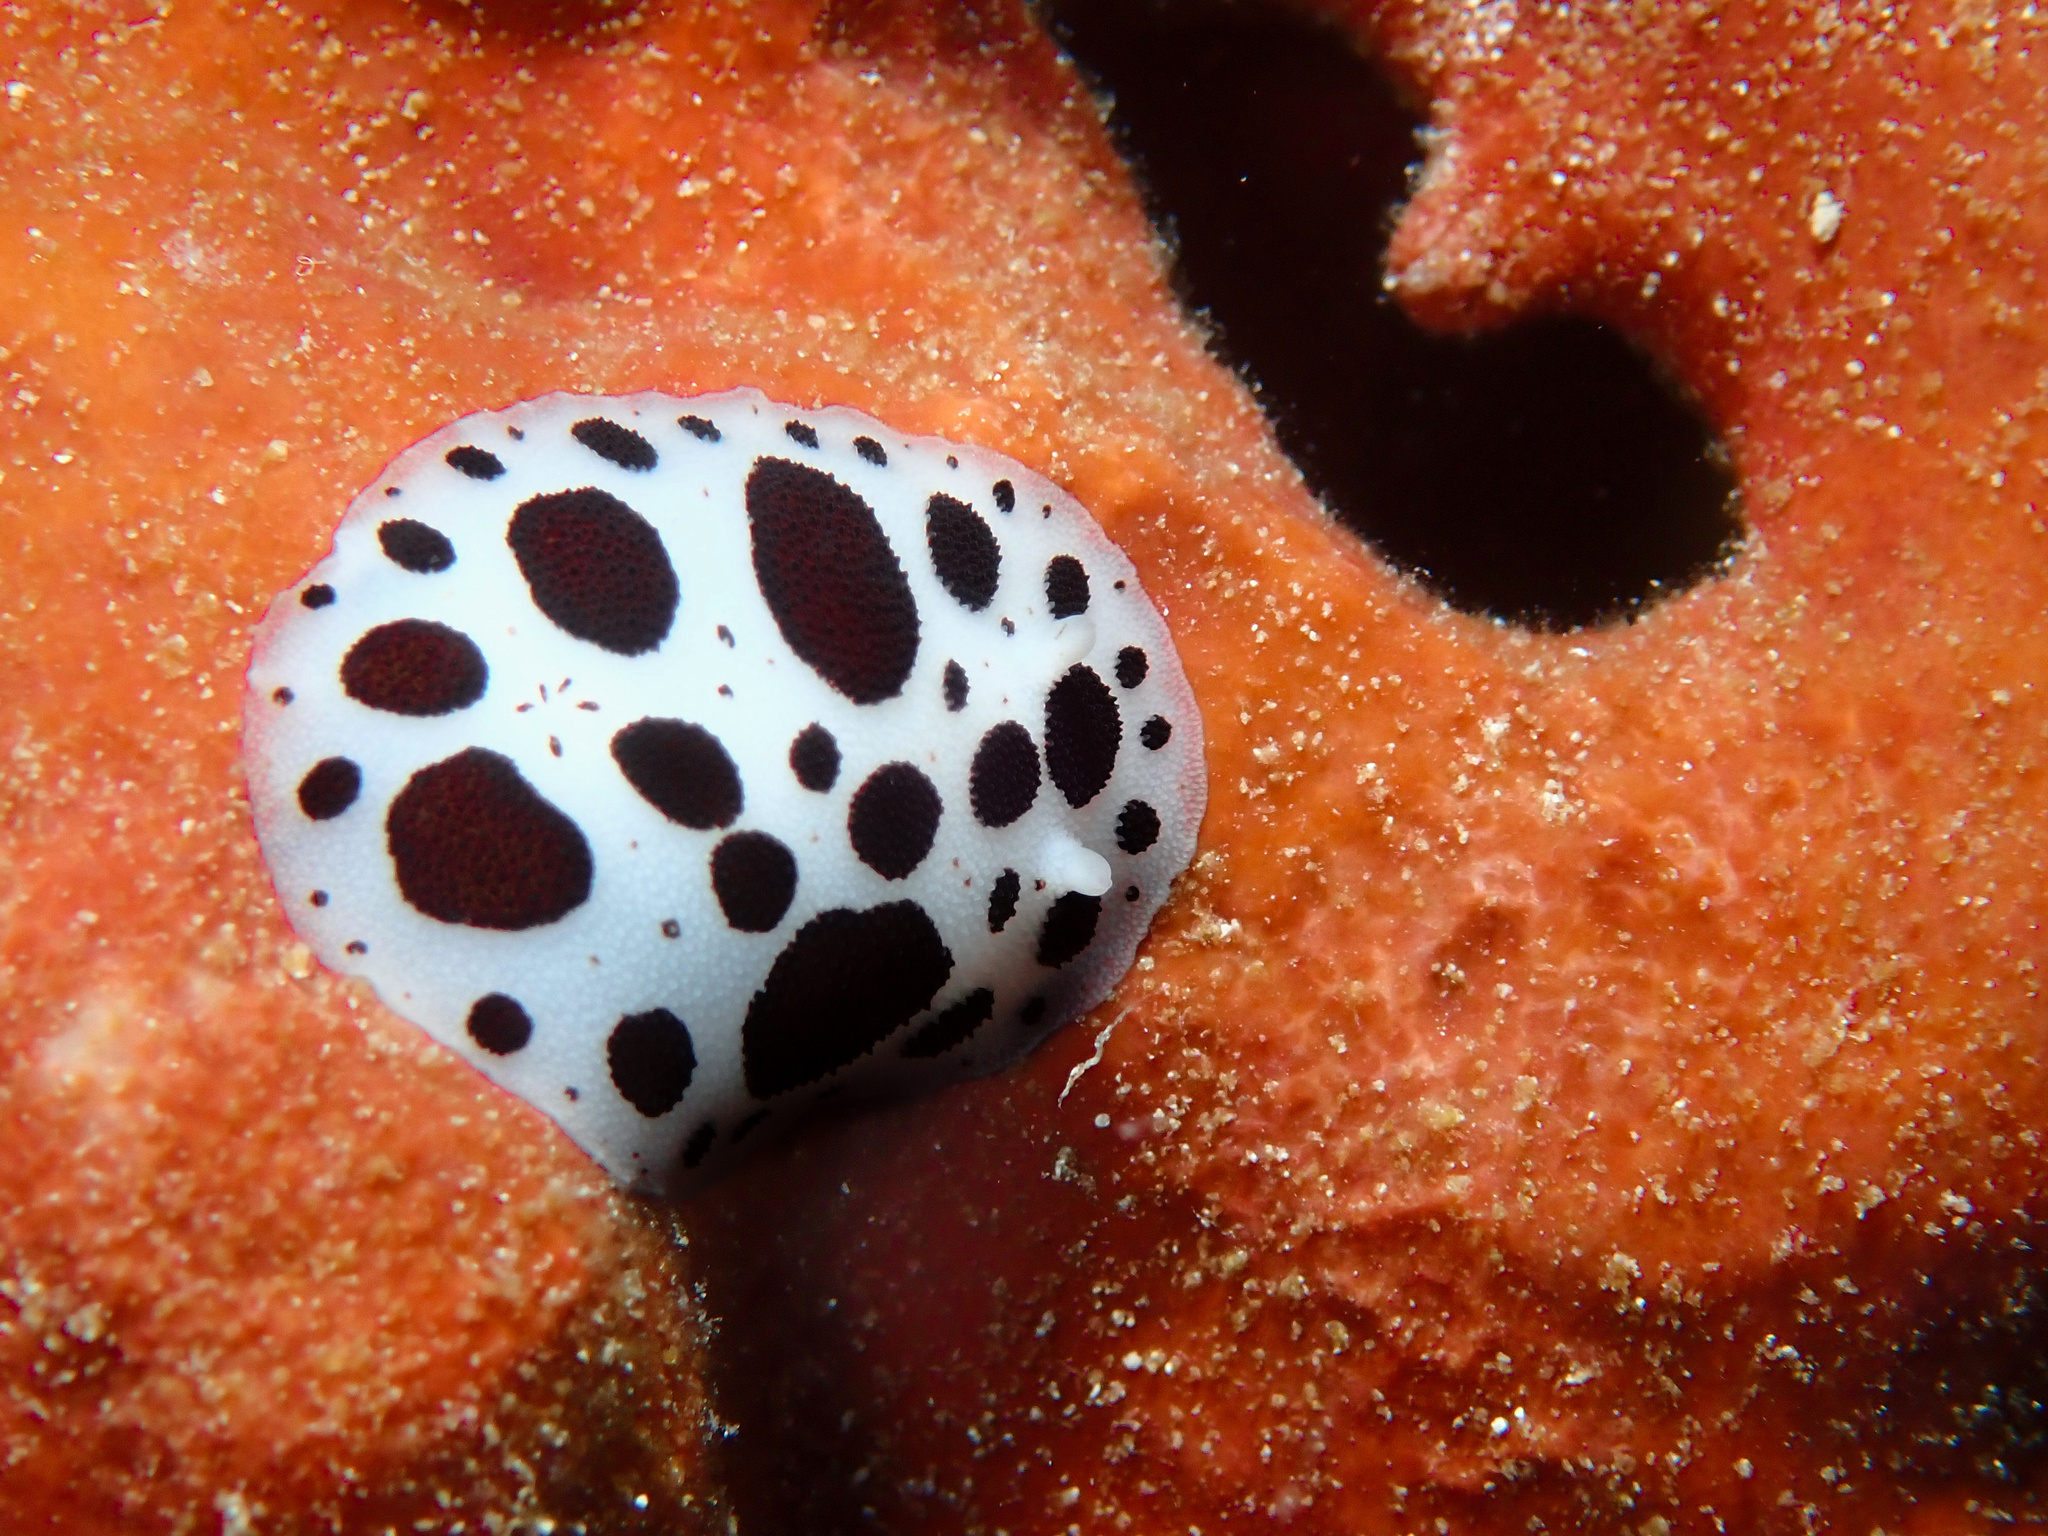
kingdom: Animalia
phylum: Mollusca
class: Gastropoda
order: Nudibranchia
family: Discodorididae
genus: Peltodoris
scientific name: Peltodoris atromaculata
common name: Swiss cow nudibranch
